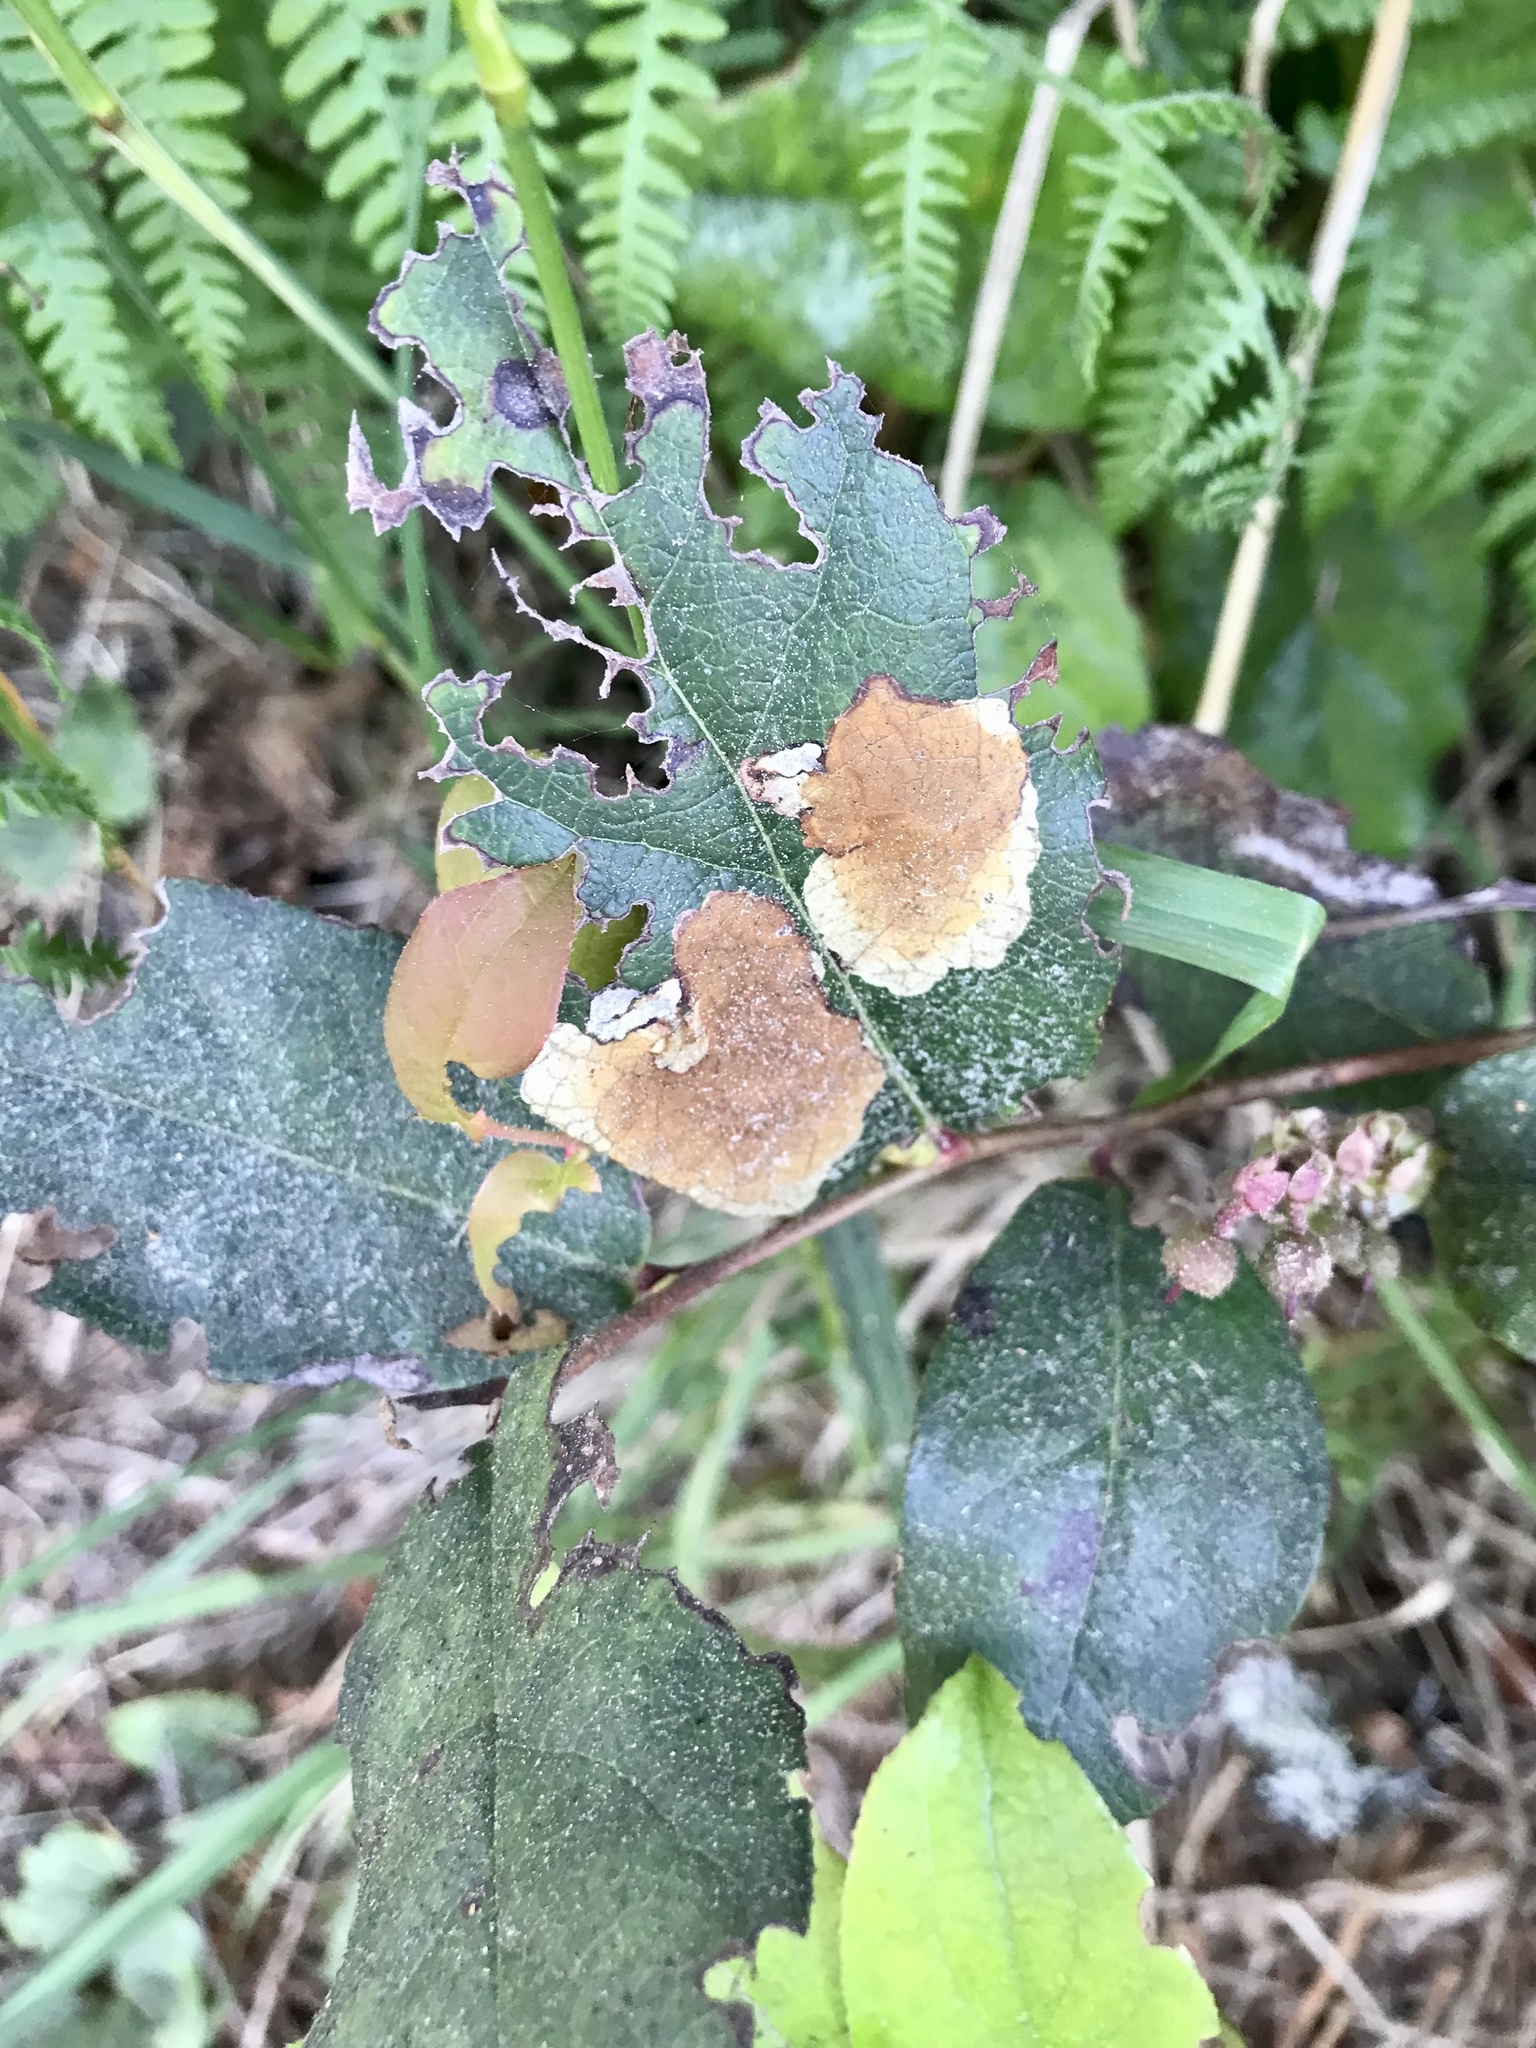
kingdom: Animalia
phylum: Arthropoda
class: Insecta
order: Lepidoptera
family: Gracillariidae
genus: Cameraria
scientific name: Cameraria gaultheriella
